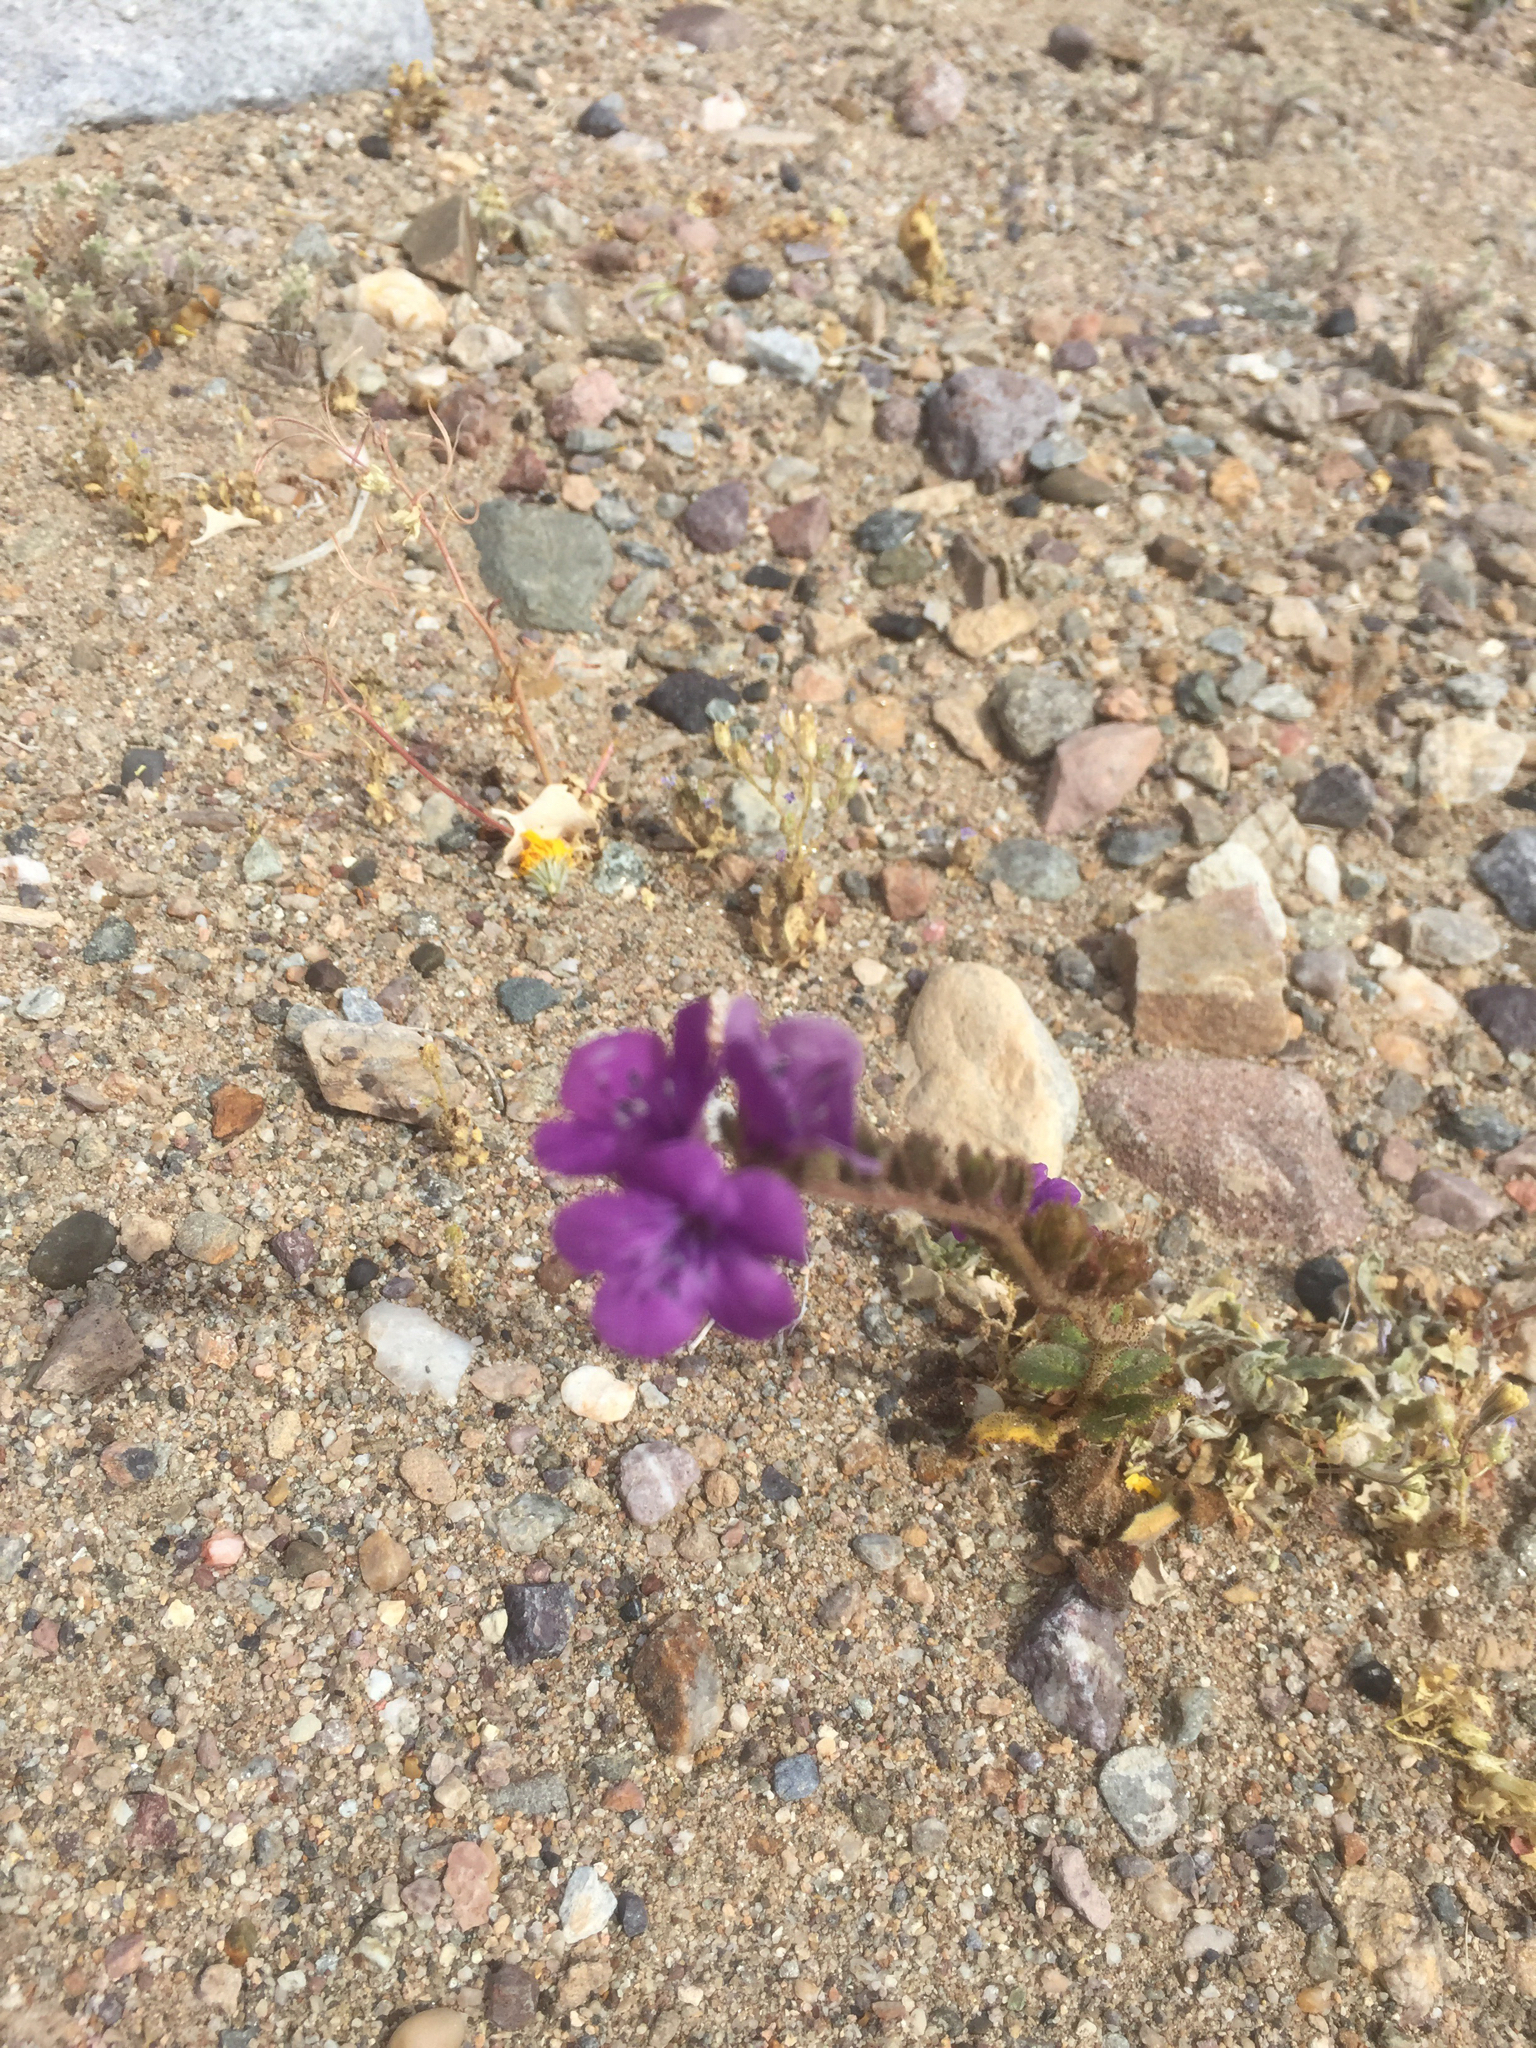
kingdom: Plantae
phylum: Tracheophyta
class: Magnoliopsida
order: Boraginales
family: Hydrophyllaceae
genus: Phacelia
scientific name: Phacelia calthifolia
